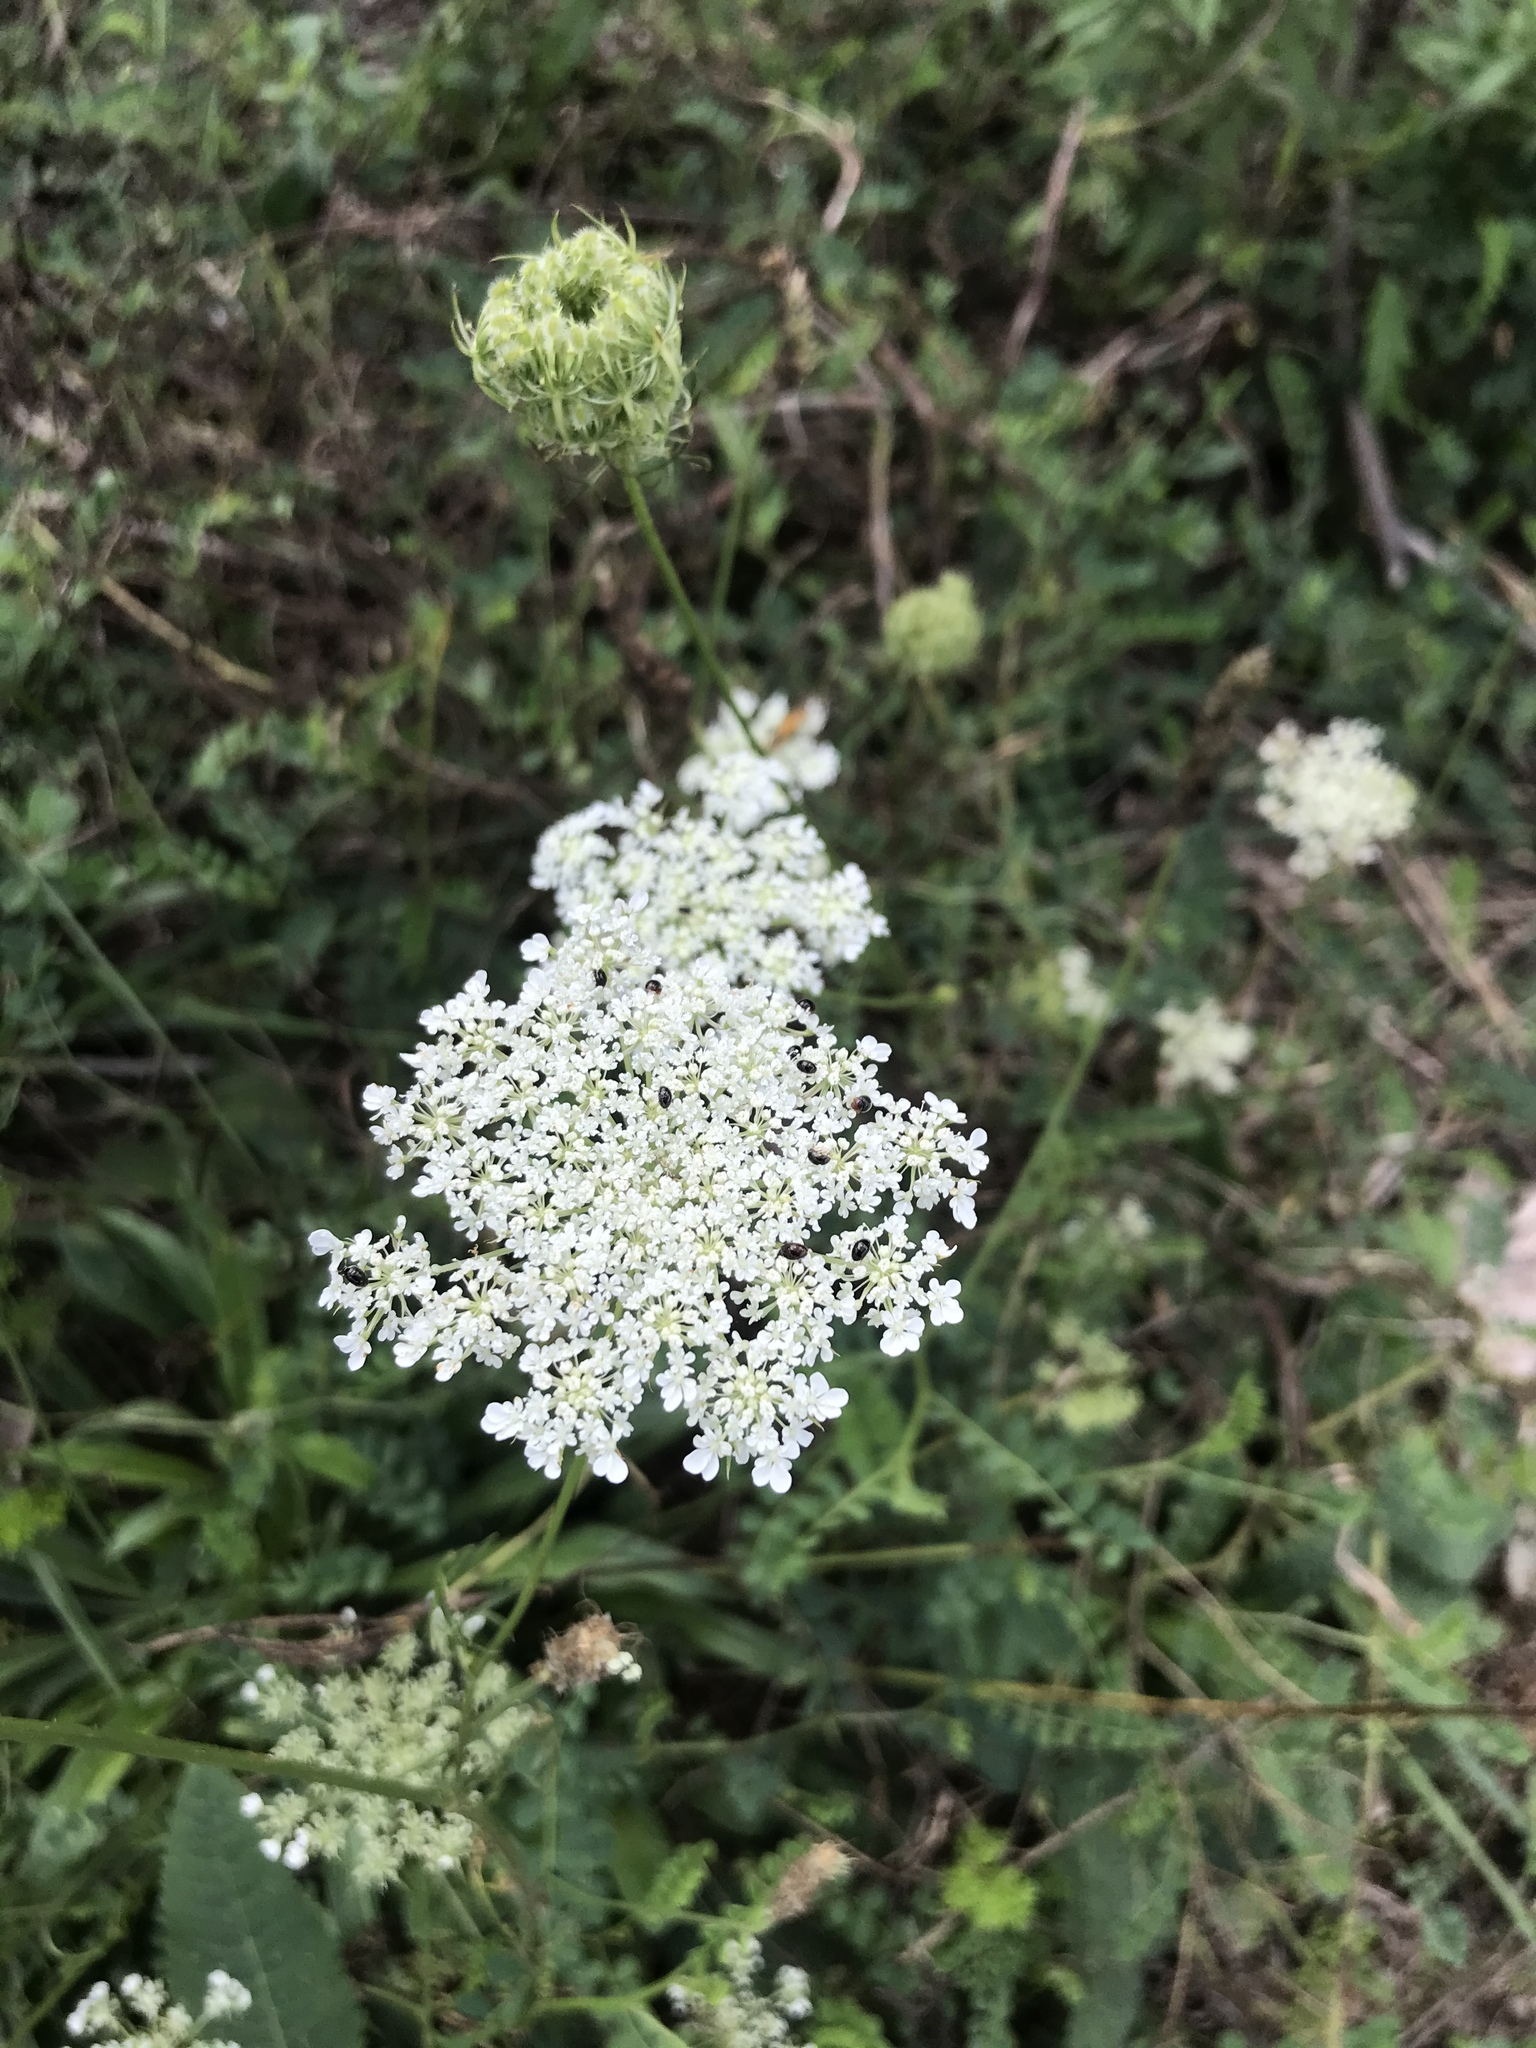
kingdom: Plantae
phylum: Tracheophyta
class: Magnoliopsida
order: Apiales
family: Apiaceae
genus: Daucus
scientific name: Daucus carota
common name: Wild carrot
